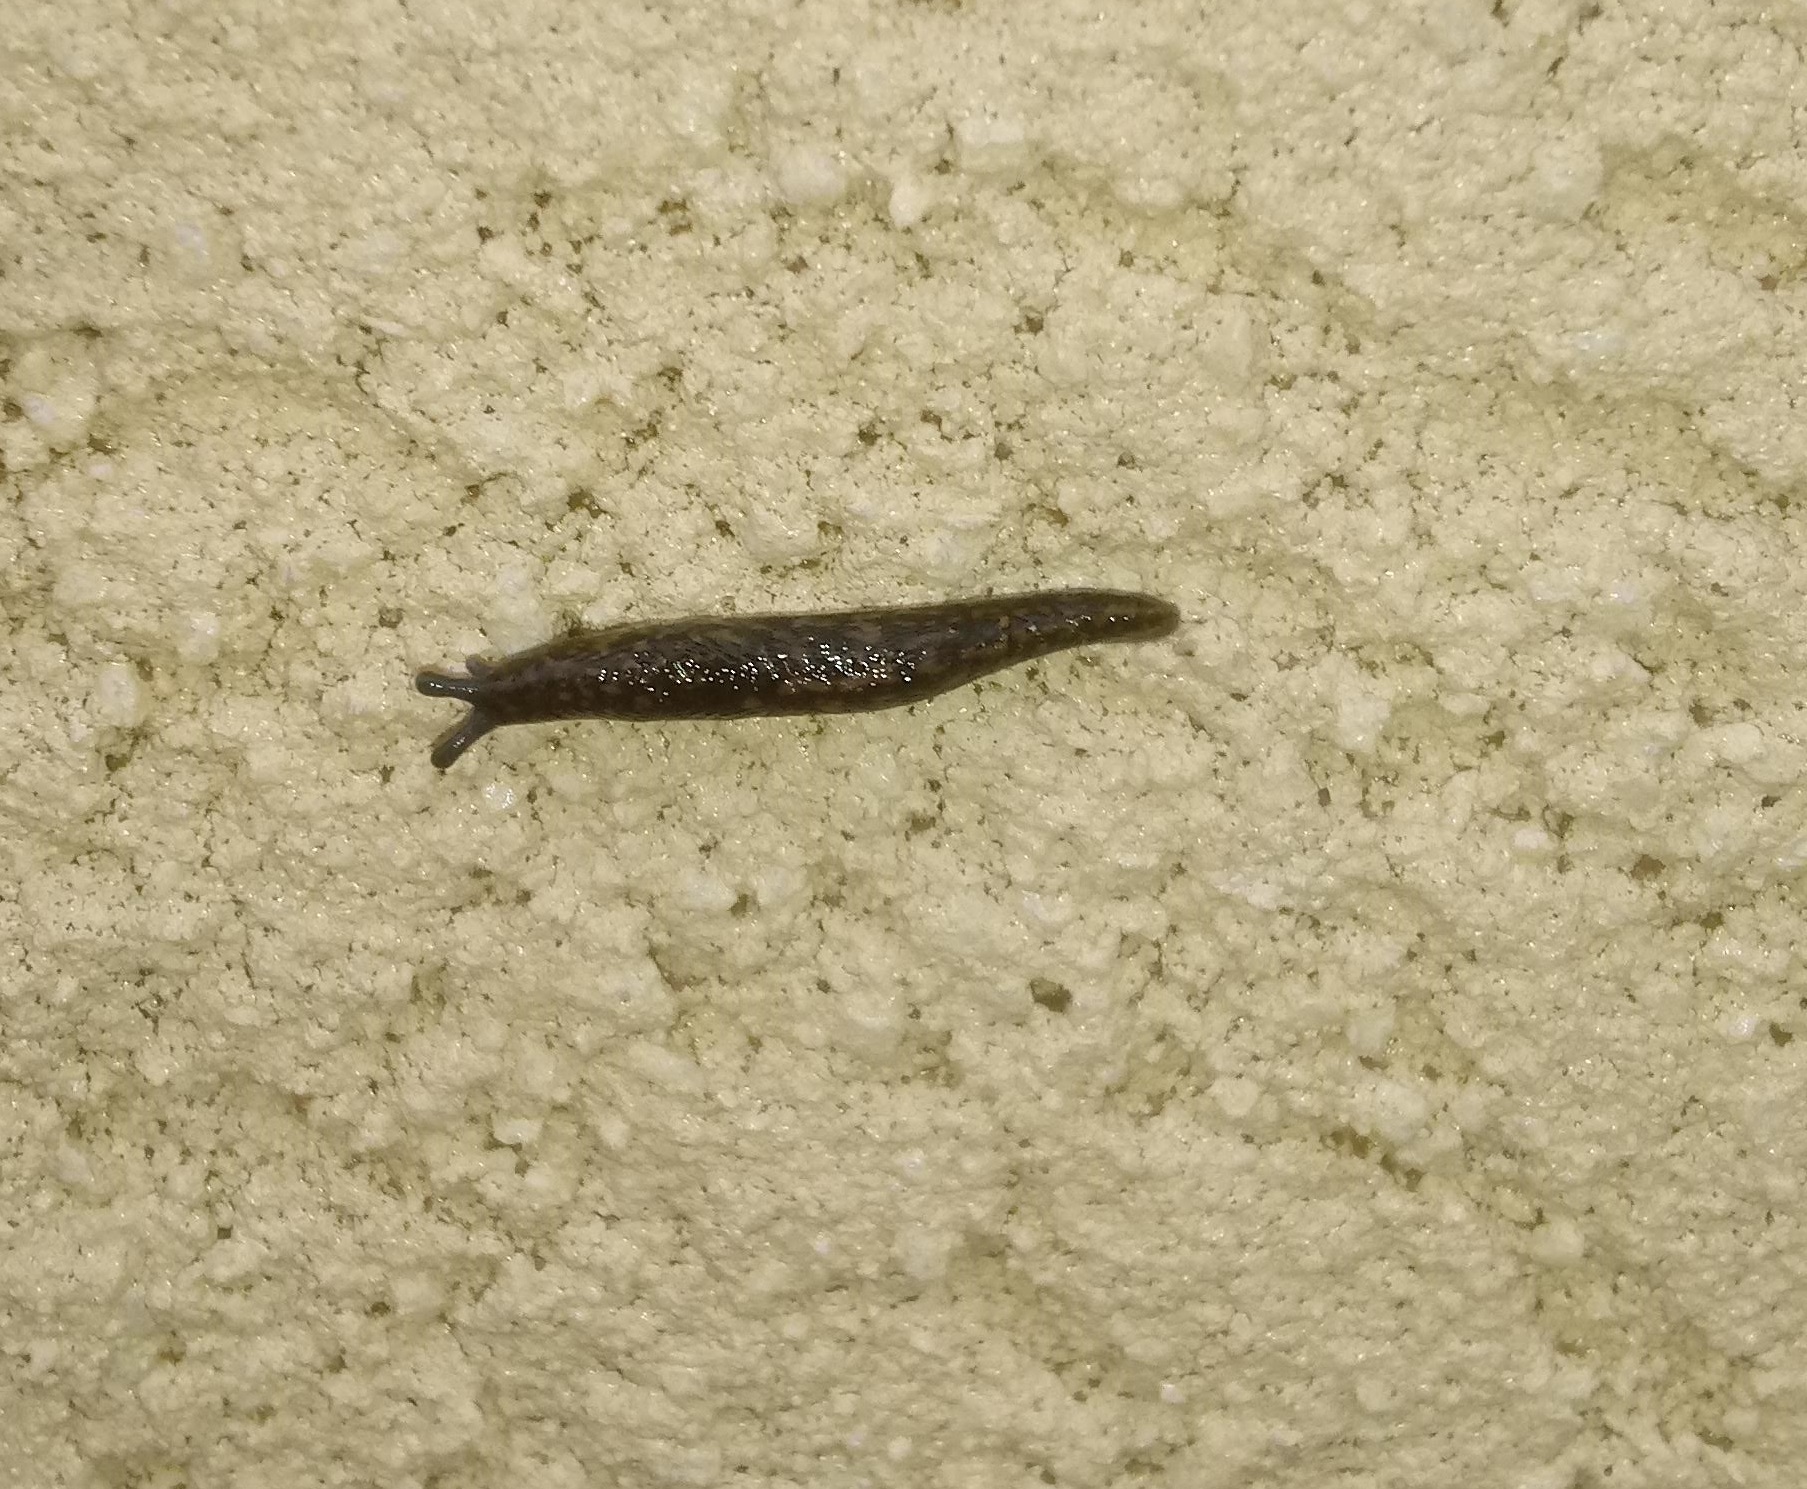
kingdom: Animalia
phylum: Mollusca
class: Gastropoda
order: Stylommatophora
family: Limacidae
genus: Limacus
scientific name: Limacus flavus
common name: Yellow gardenslug
